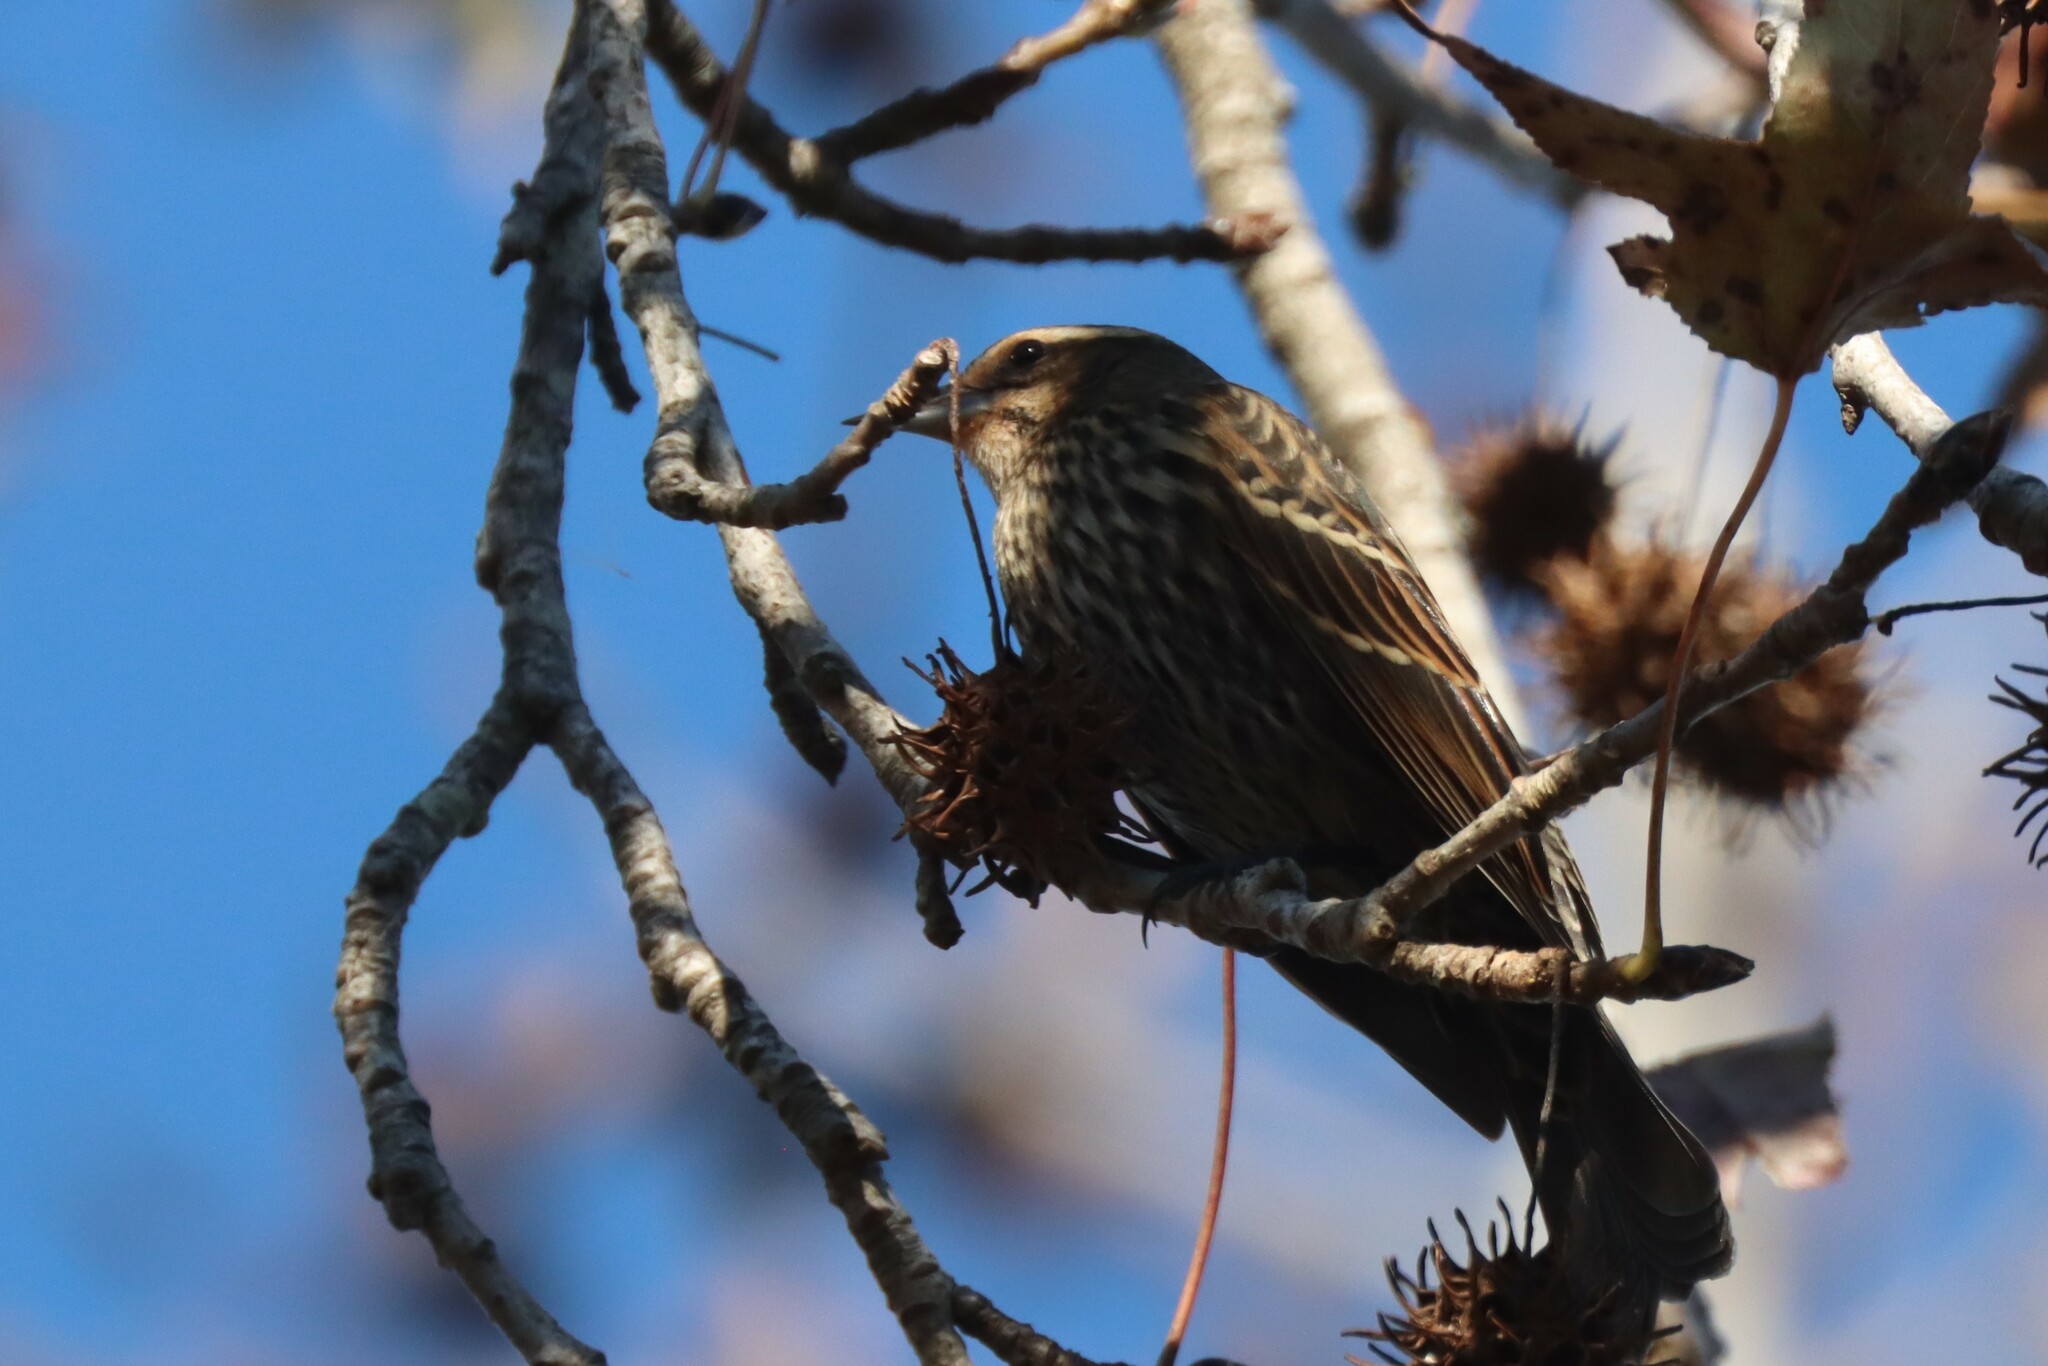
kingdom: Animalia
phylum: Chordata
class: Aves
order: Passeriformes
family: Icteridae
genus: Agelaius
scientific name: Agelaius phoeniceus
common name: Red-winged blackbird
